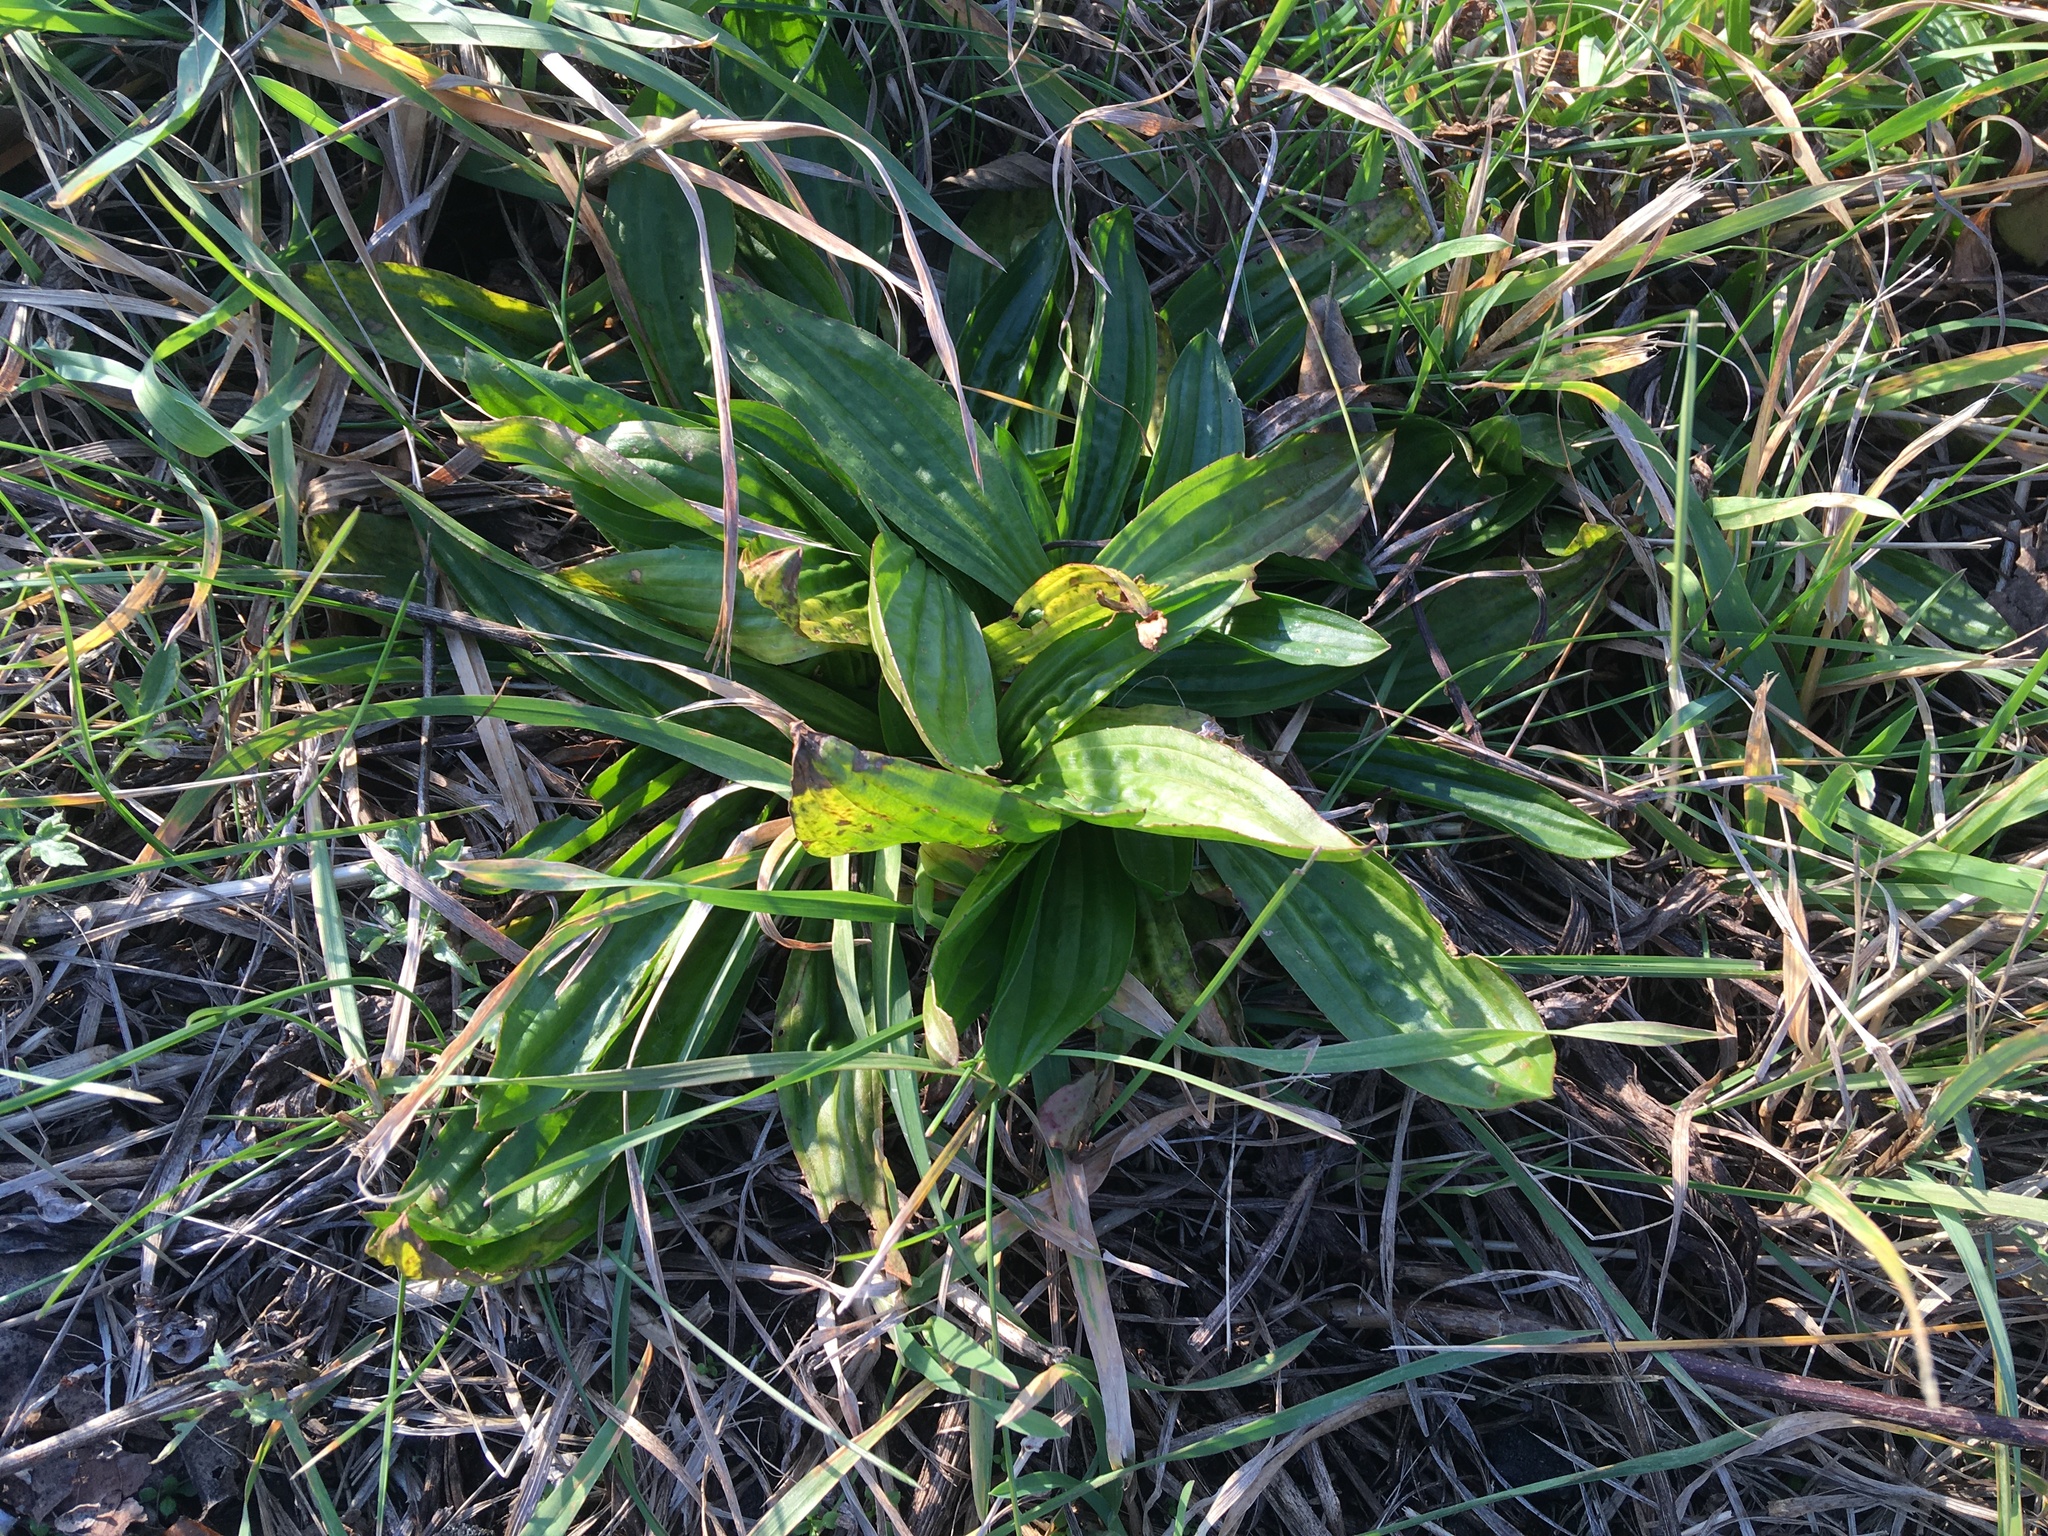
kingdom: Plantae
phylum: Tracheophyta
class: Magnoliopsida
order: Lamiales
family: Plantaginaceae
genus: Plantago
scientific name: Plantago lanceolata
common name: Ribwort plantain
